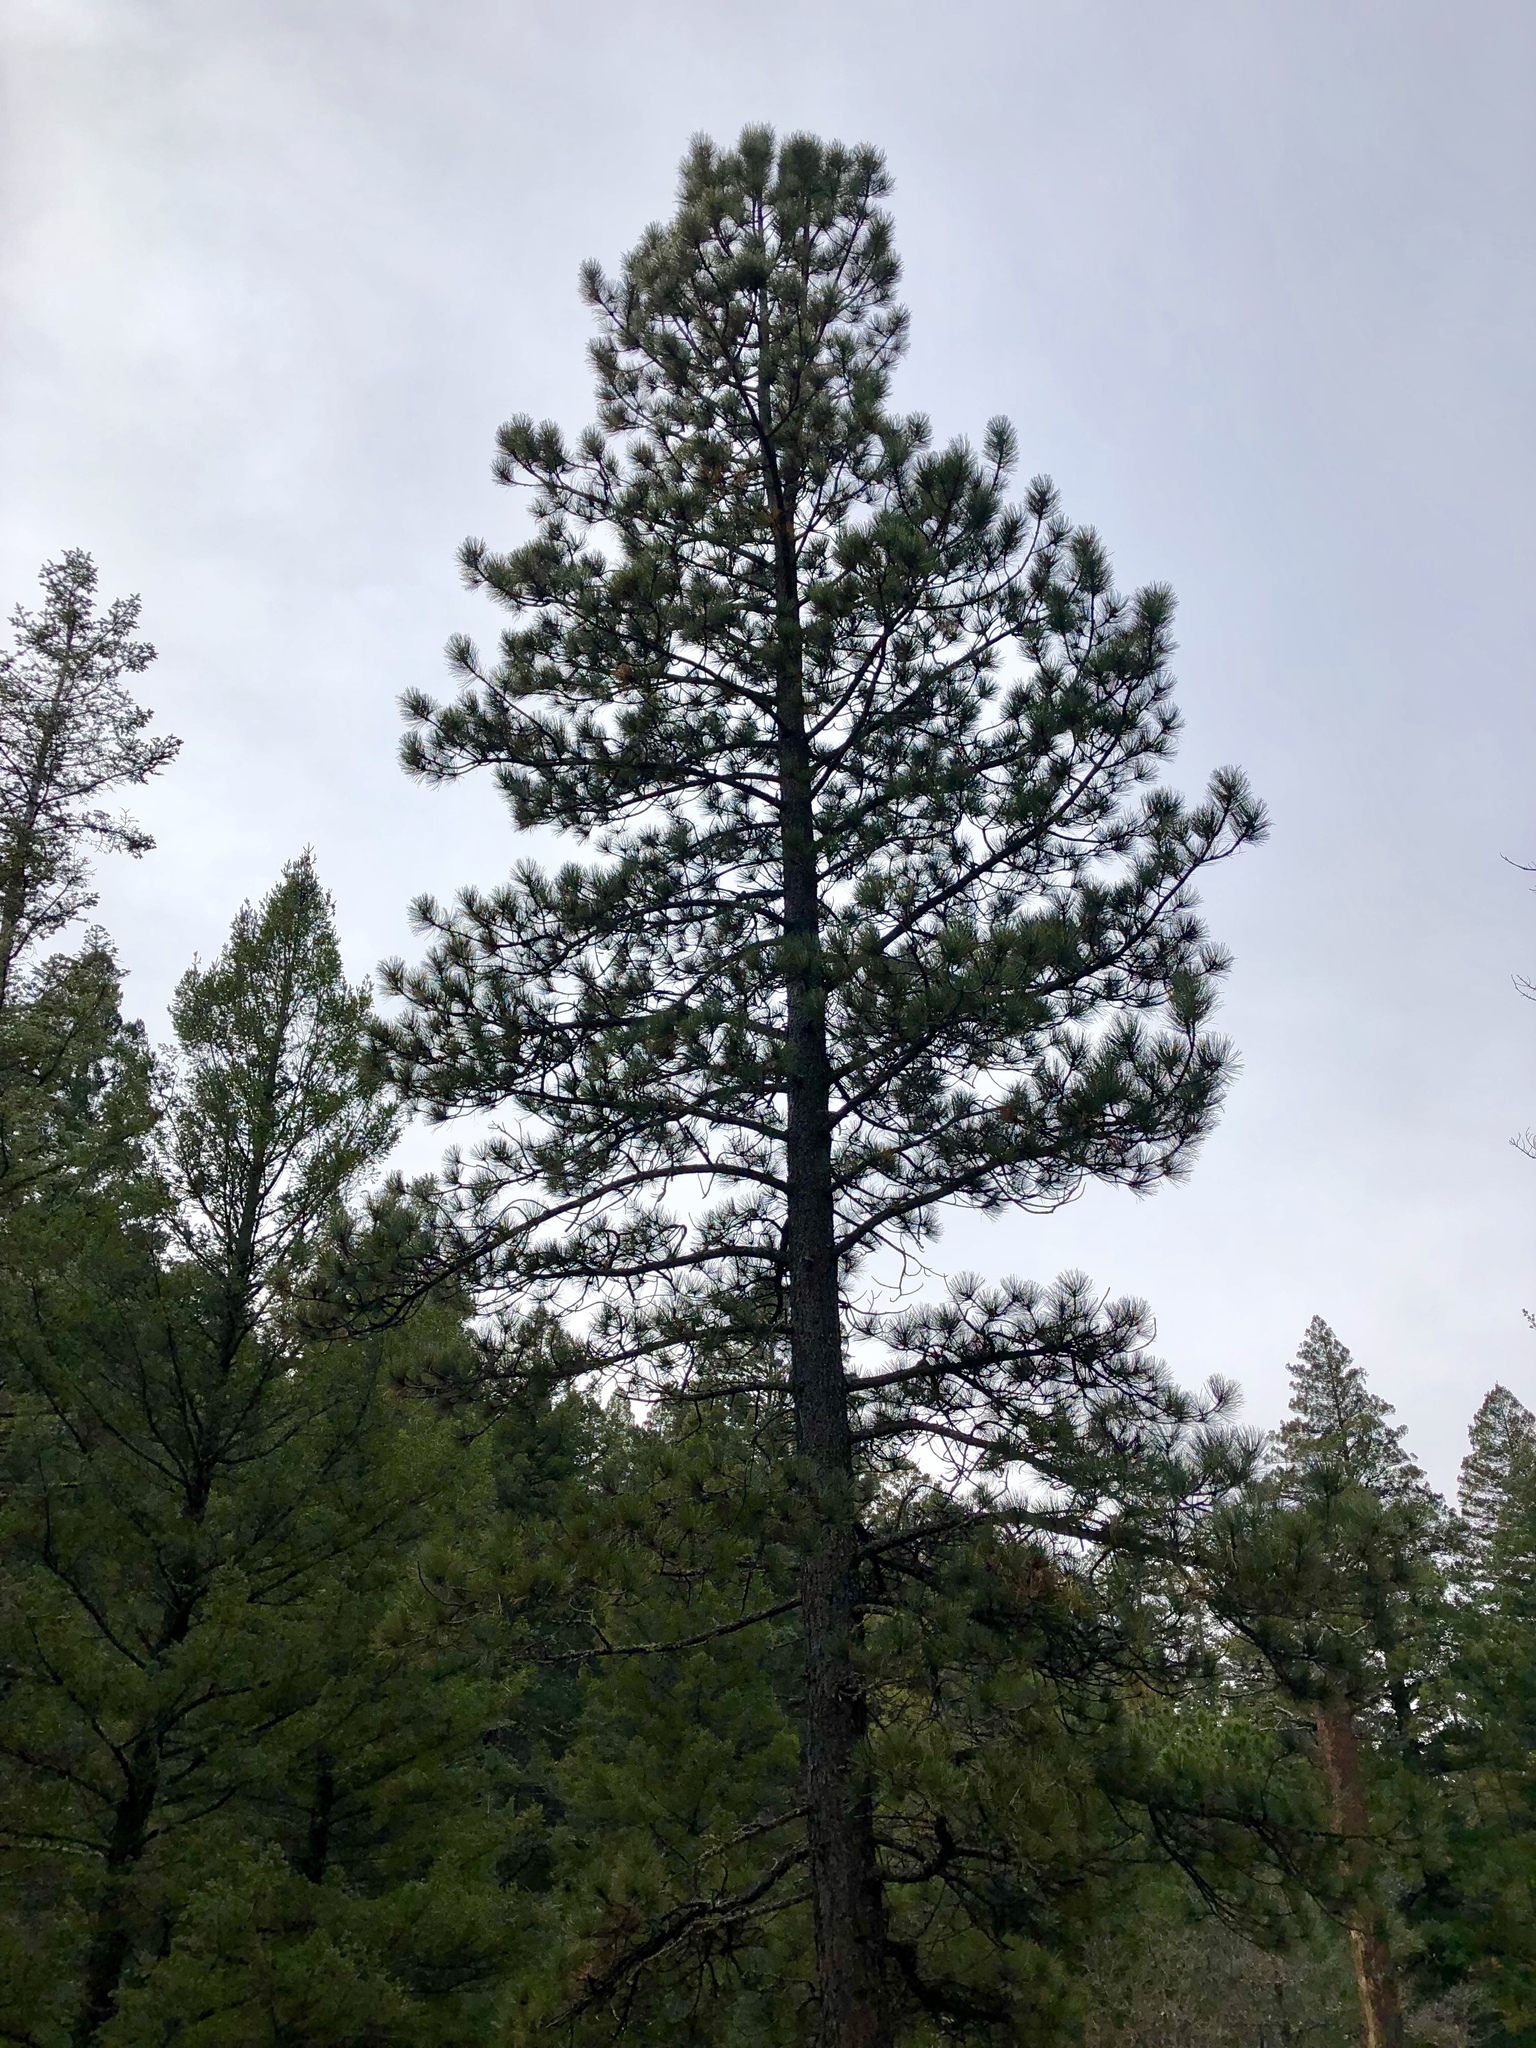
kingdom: Plantae
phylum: Tracheophyta
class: Pinopsida
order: Pinales
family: Pinaceae
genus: Pinus
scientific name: Pinus ponderosa
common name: Western yellow-pine
